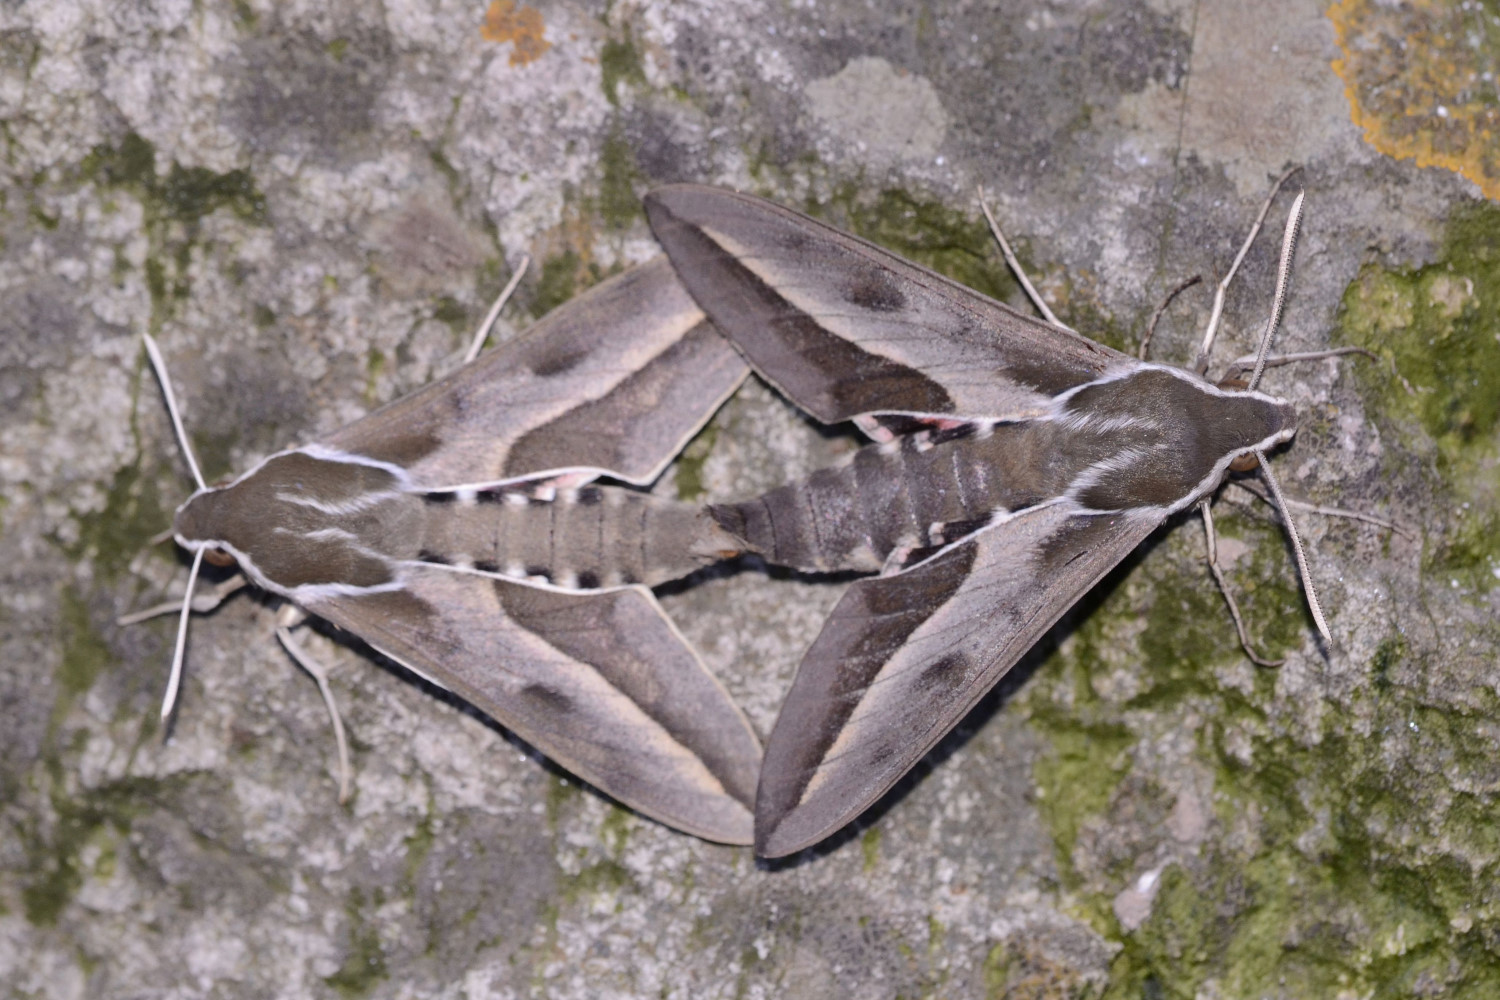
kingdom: Animalia
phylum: Arthropoda
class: Insecta
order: Lepidoptera
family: Sphingidae
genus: Hyles
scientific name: Hyles annei
